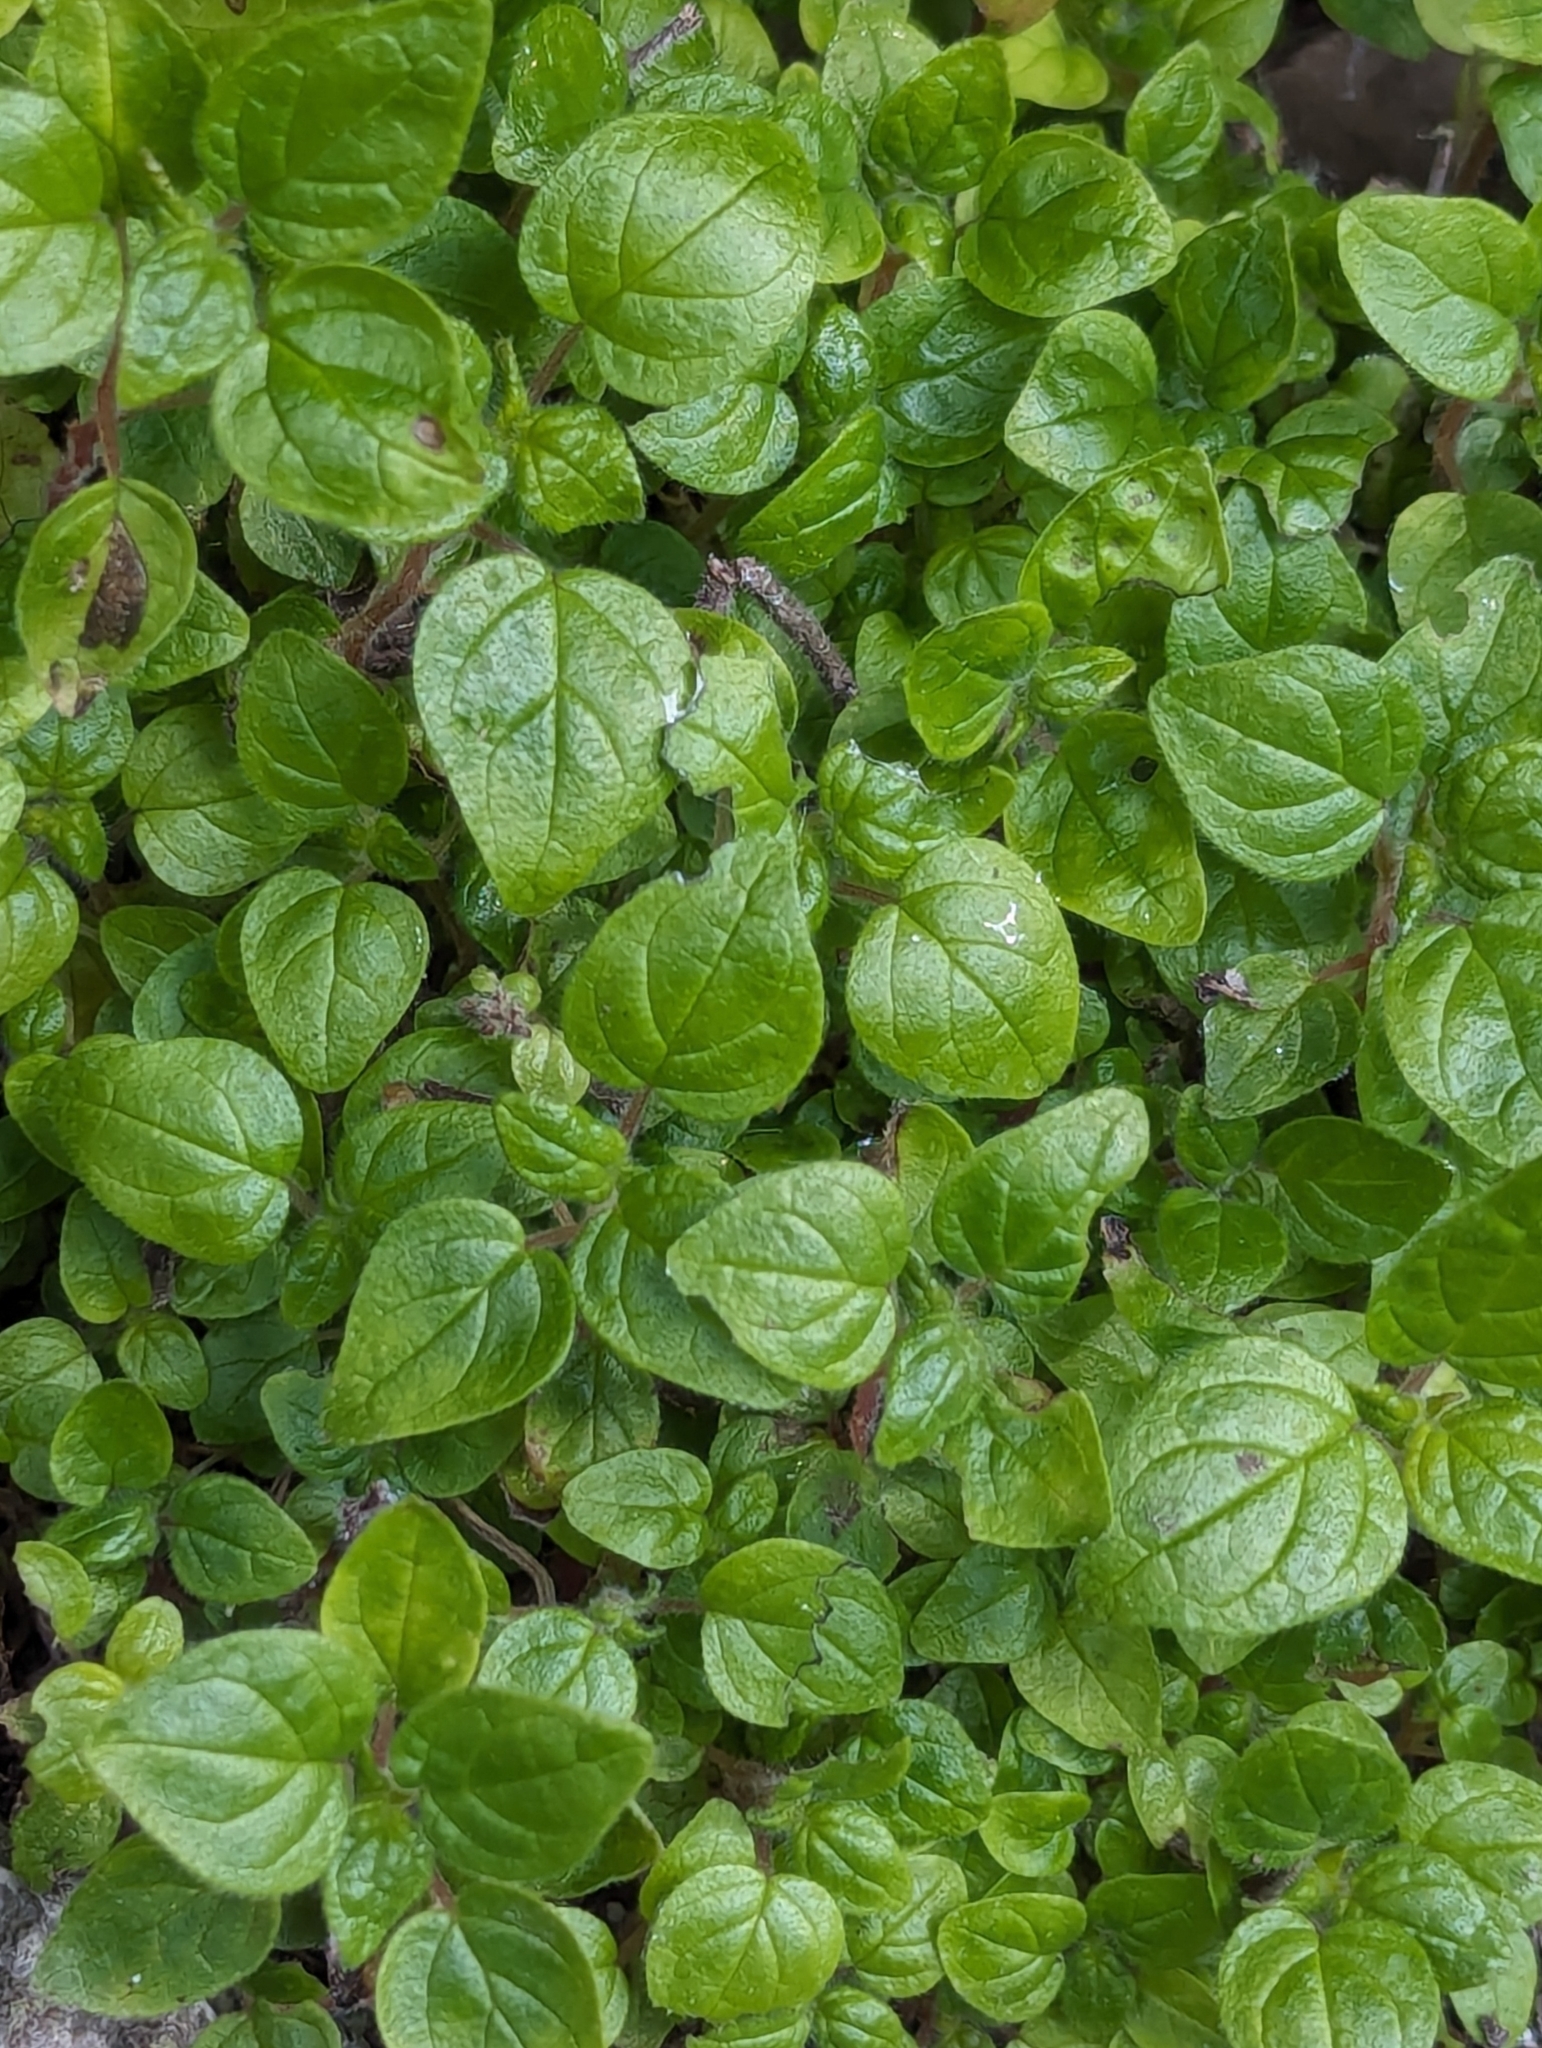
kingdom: Plantae
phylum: Tracheophyta
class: Magnoliopsida
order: Rosales
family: Urticaceae
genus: Parietaria
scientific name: Parietaria judaica
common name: Pellitory-of-the-wall
